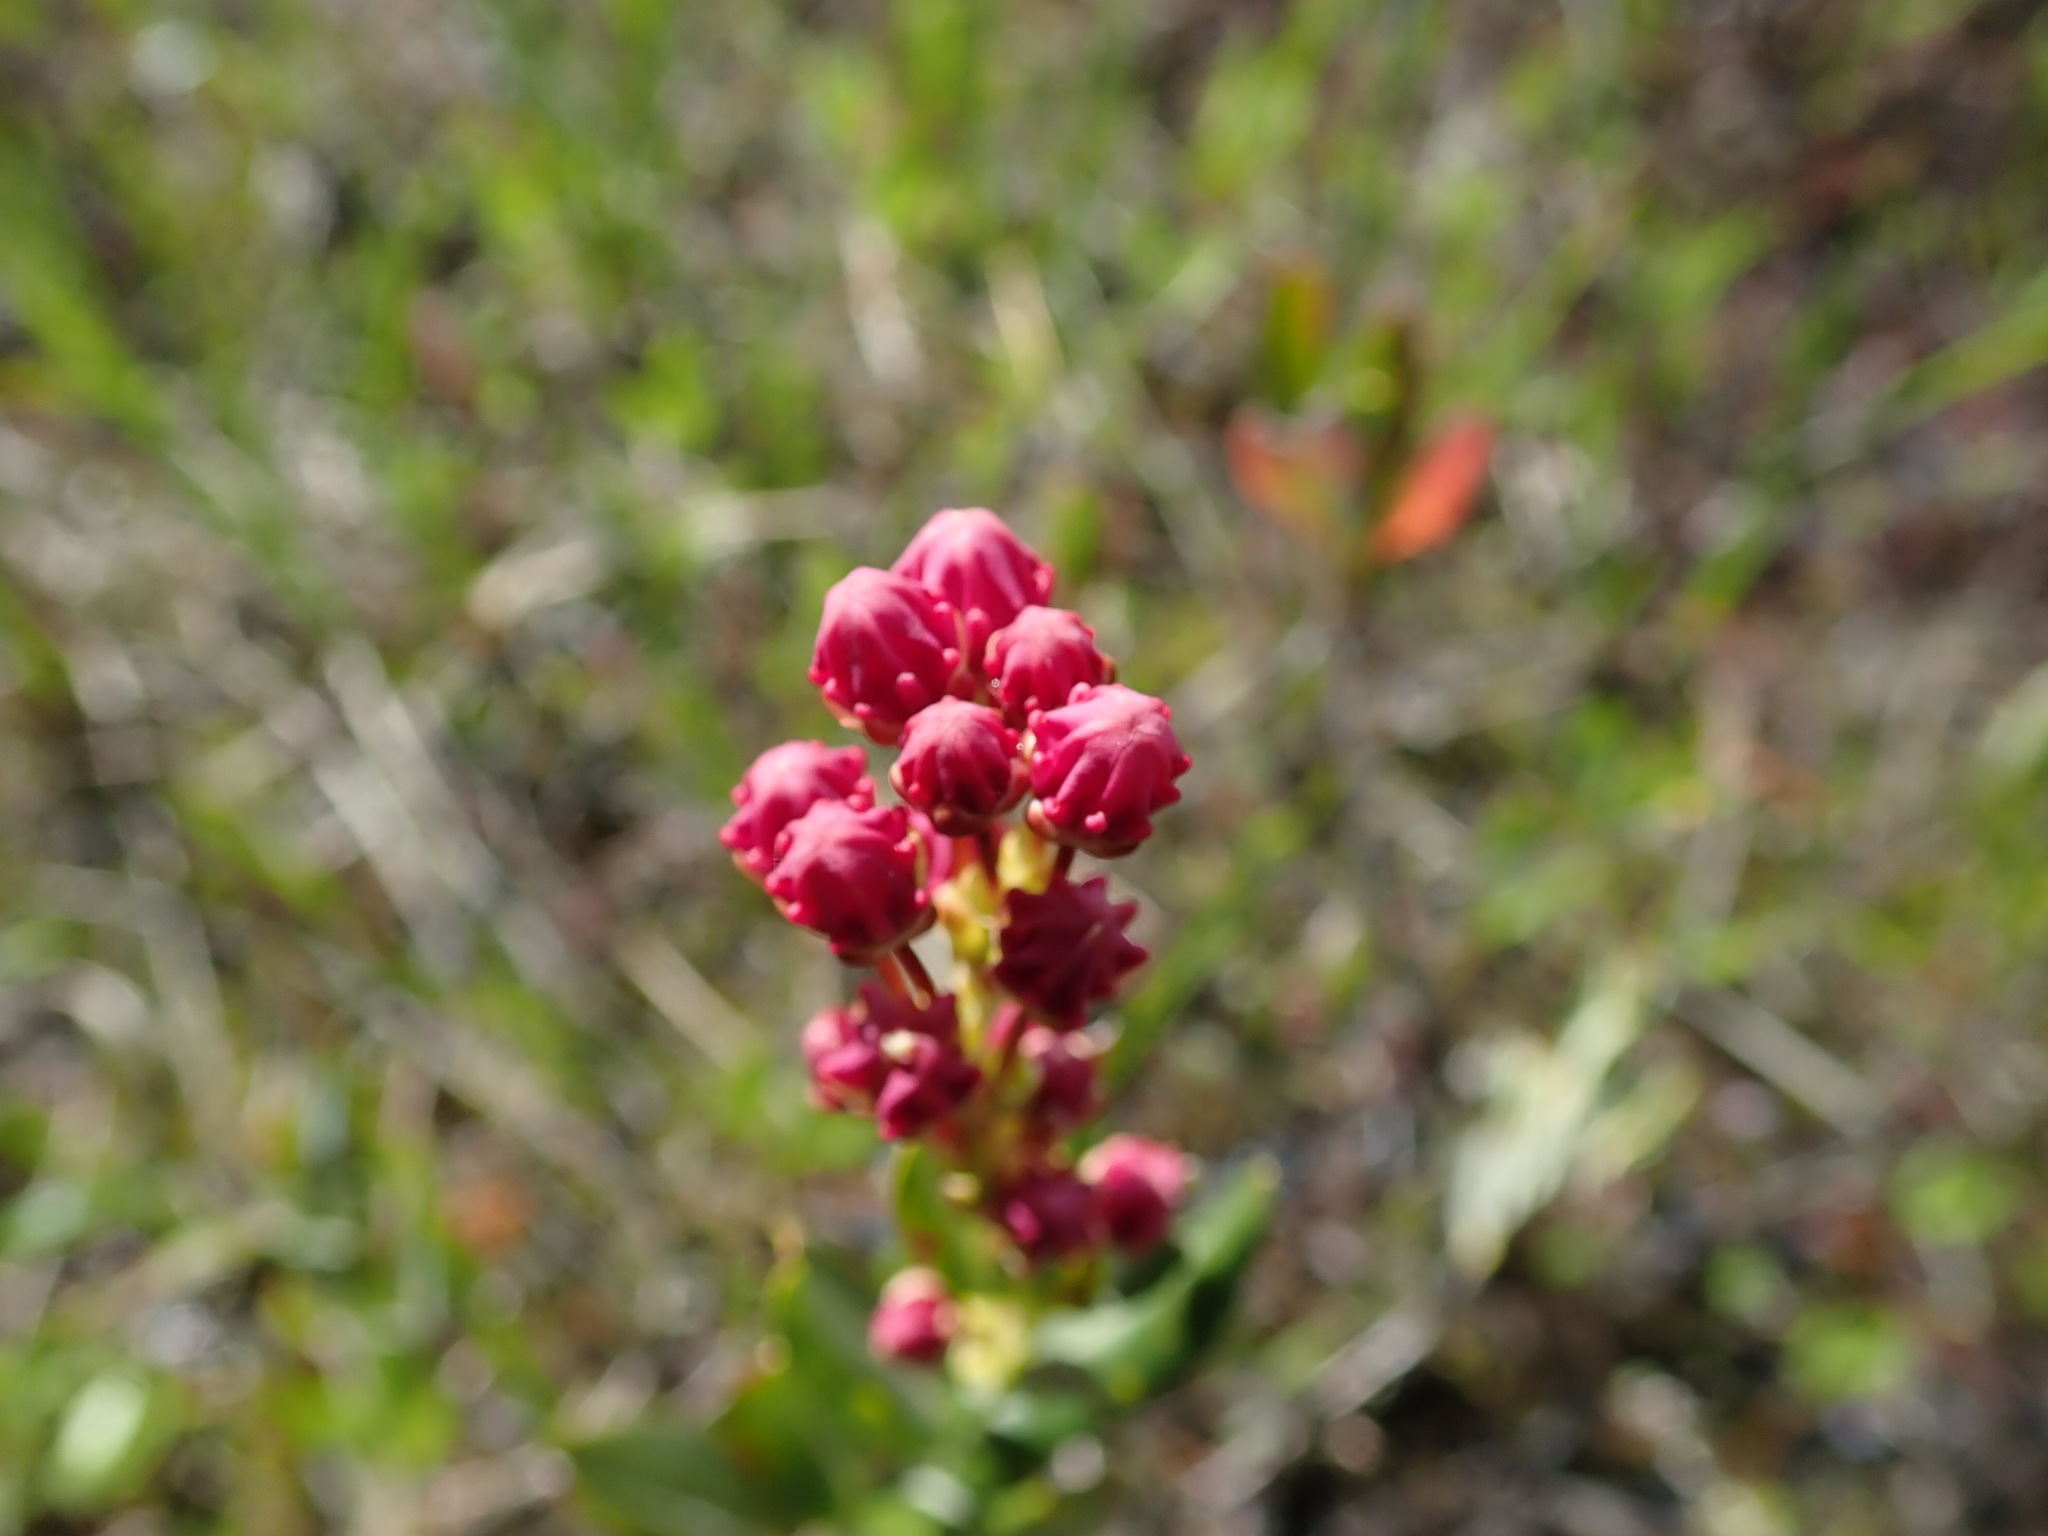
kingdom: Plantae
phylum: Tracheophyta
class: Magnoliopsida
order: Ericales
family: Ericaceae
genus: Kalmia
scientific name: Kalmia microphylla
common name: Alpine bog laurel
